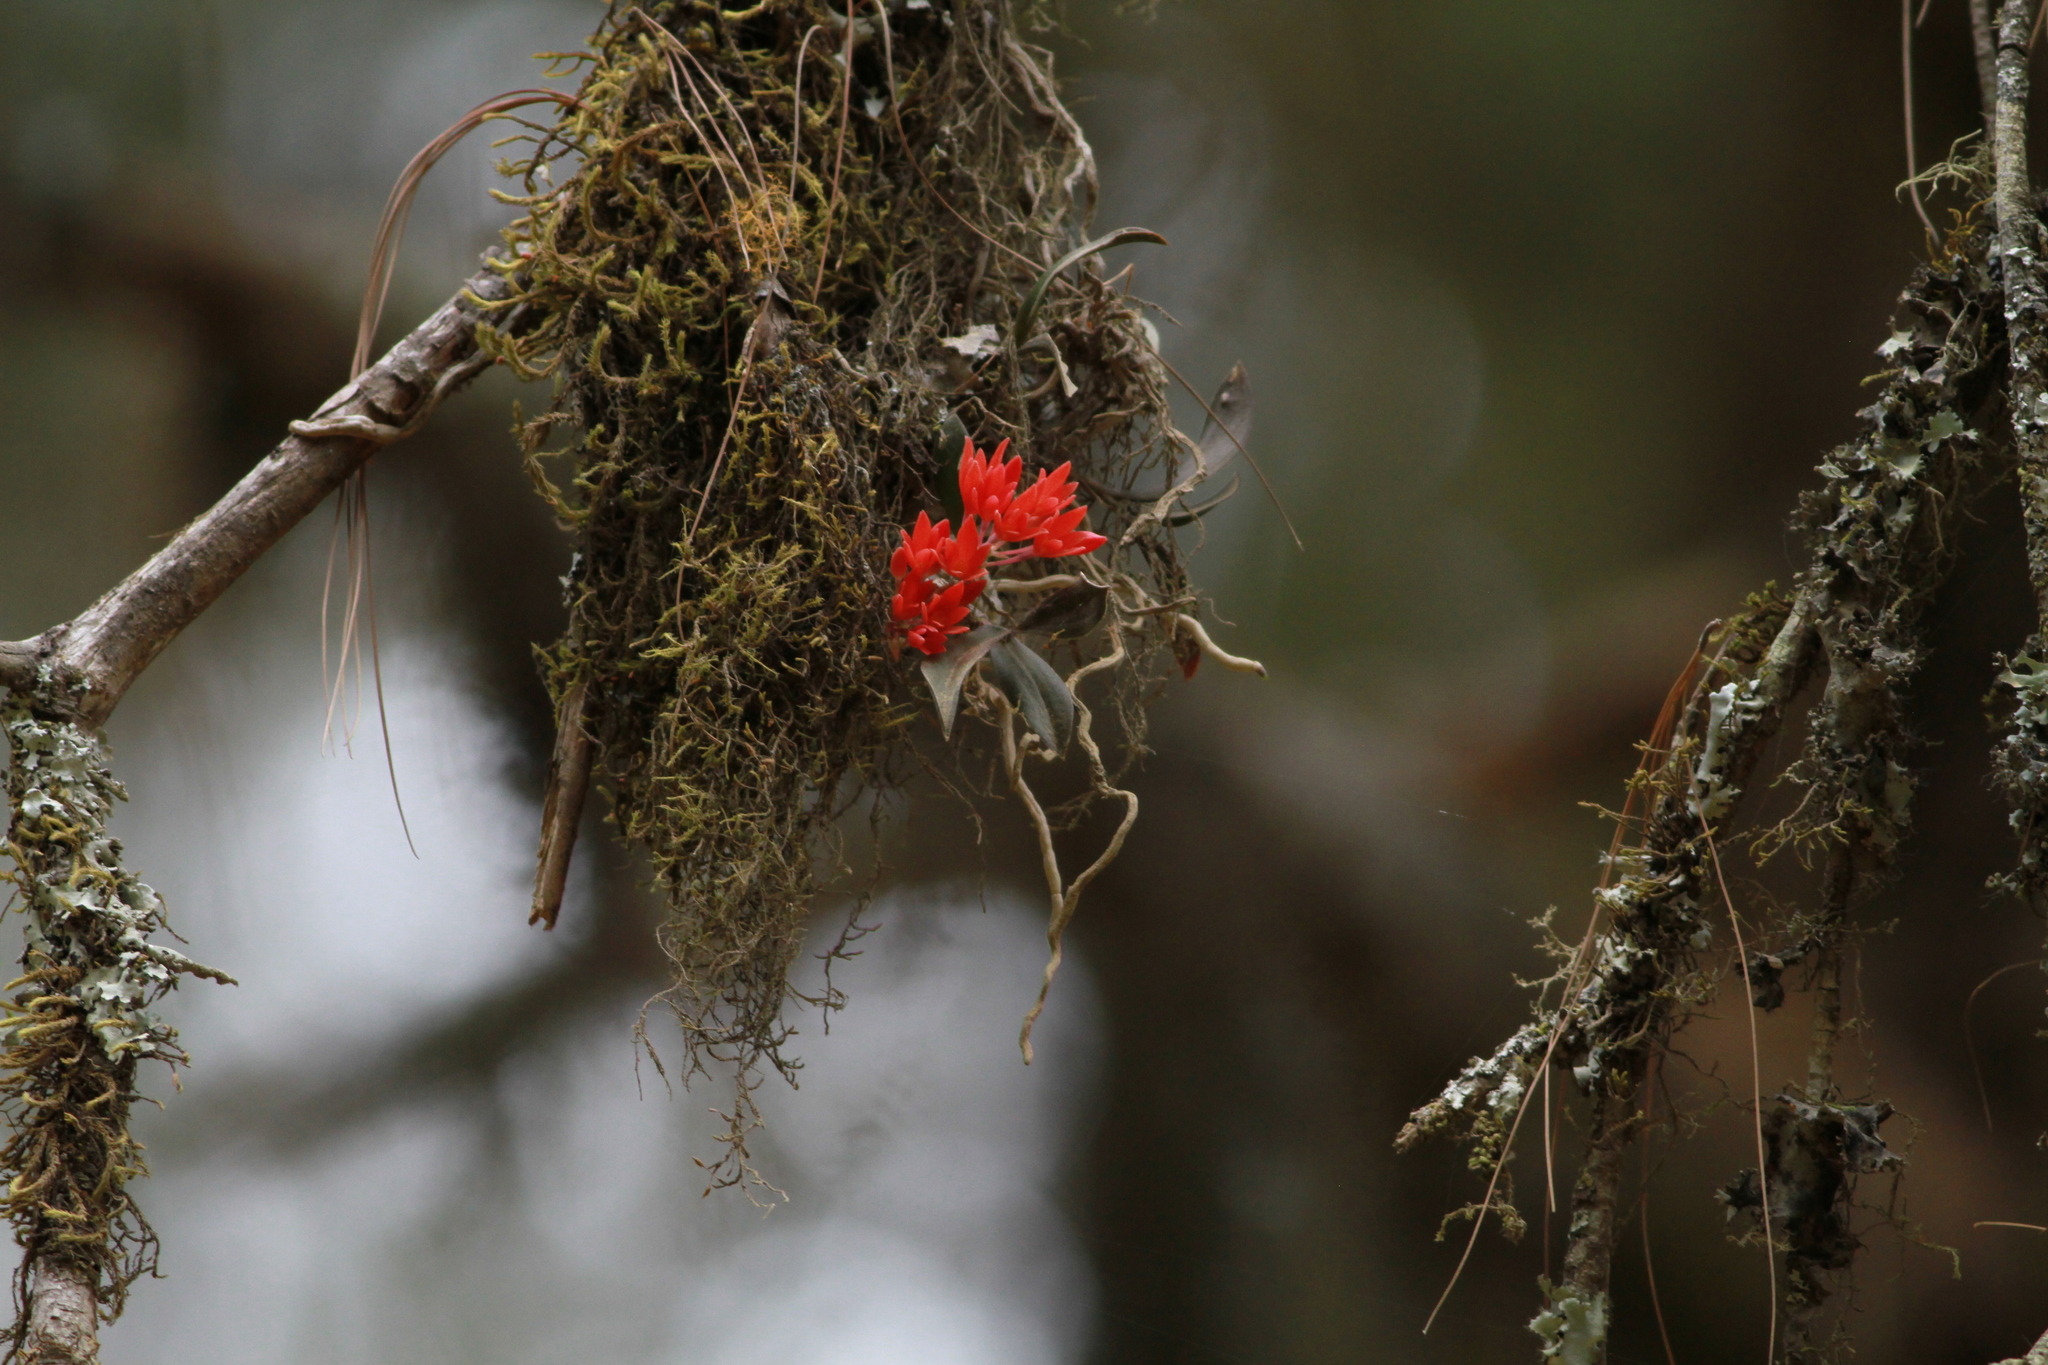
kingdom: Plantae
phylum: Tracheophyta
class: Liliopsida
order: Asparagales
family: Orchidaceae
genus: Alamania
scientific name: Alamania punicea
